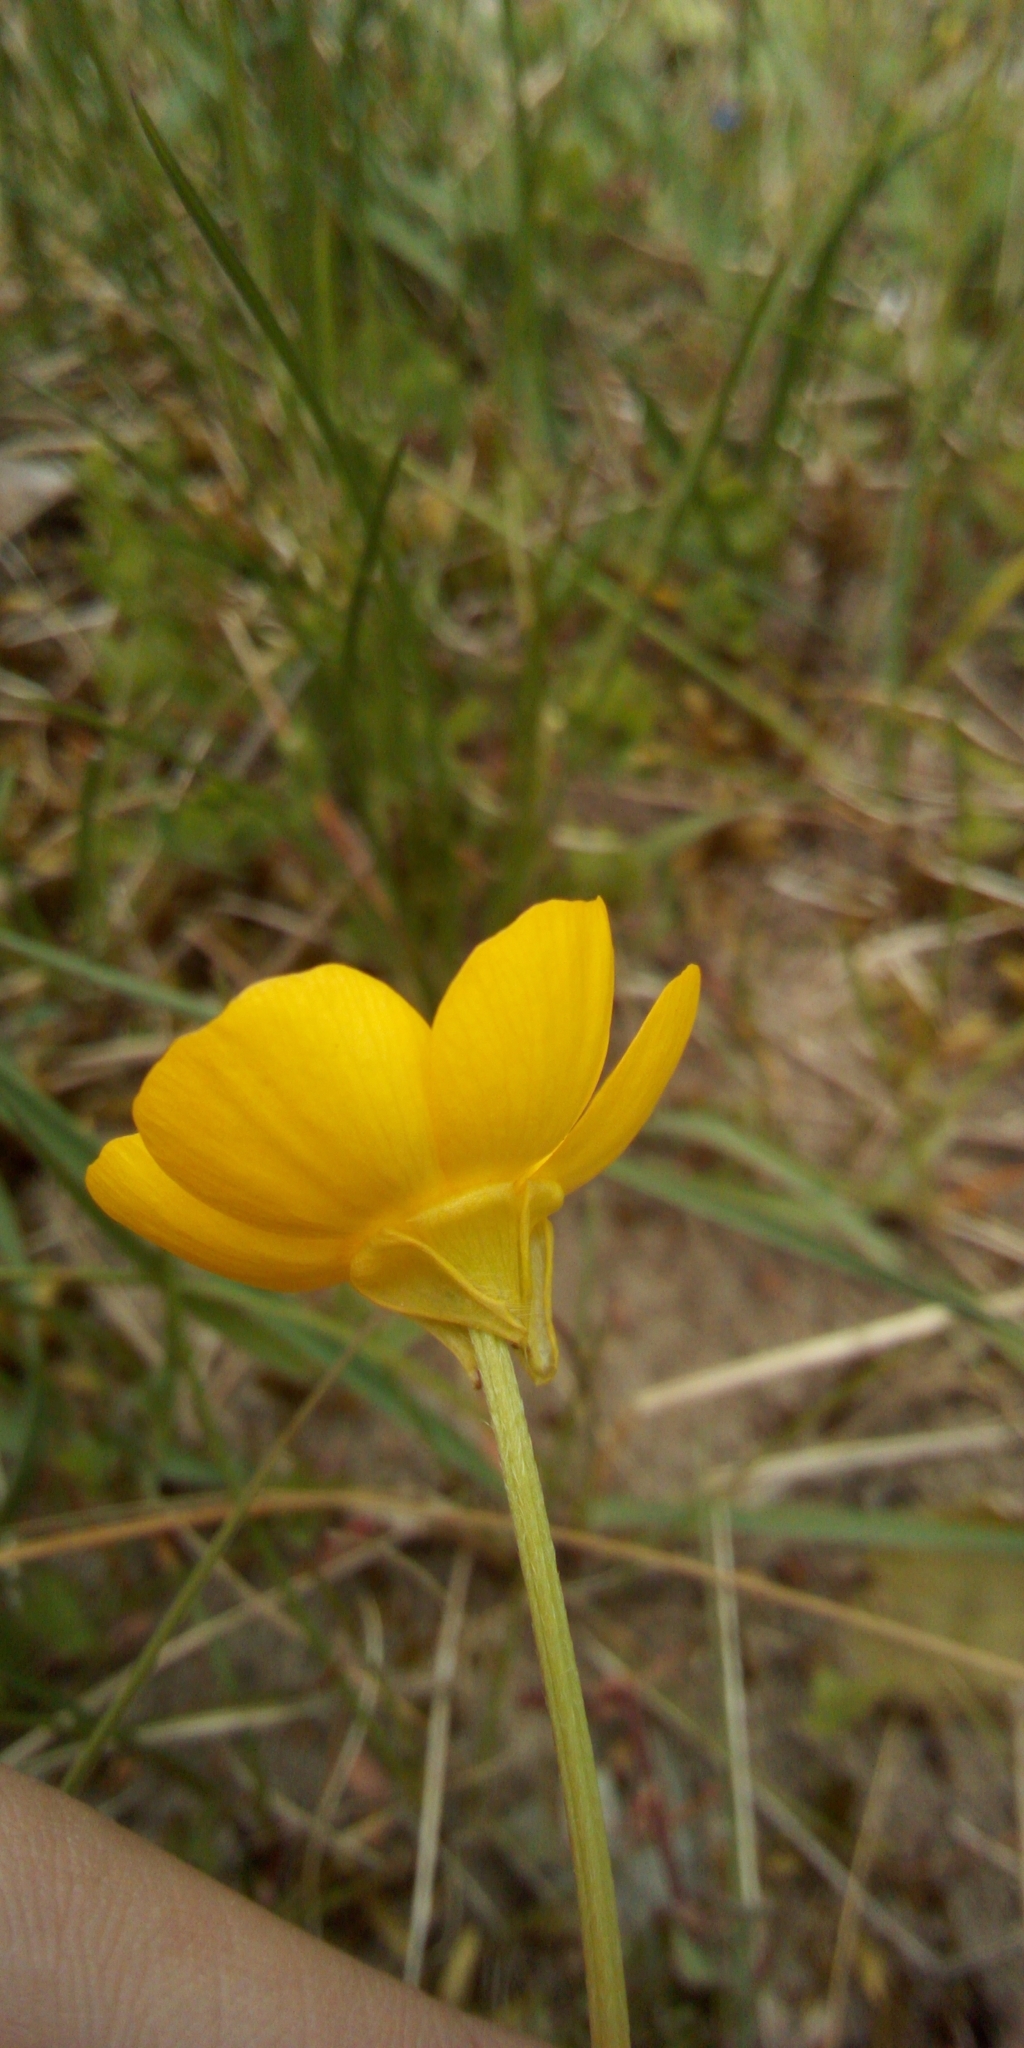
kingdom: Plantae
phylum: Tracheophyta
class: Magnoliopsida
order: Ranunculales
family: Ranunculaceae
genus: Ranunculus
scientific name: Ranunculus bulbosus
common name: Bulbous buttercup
